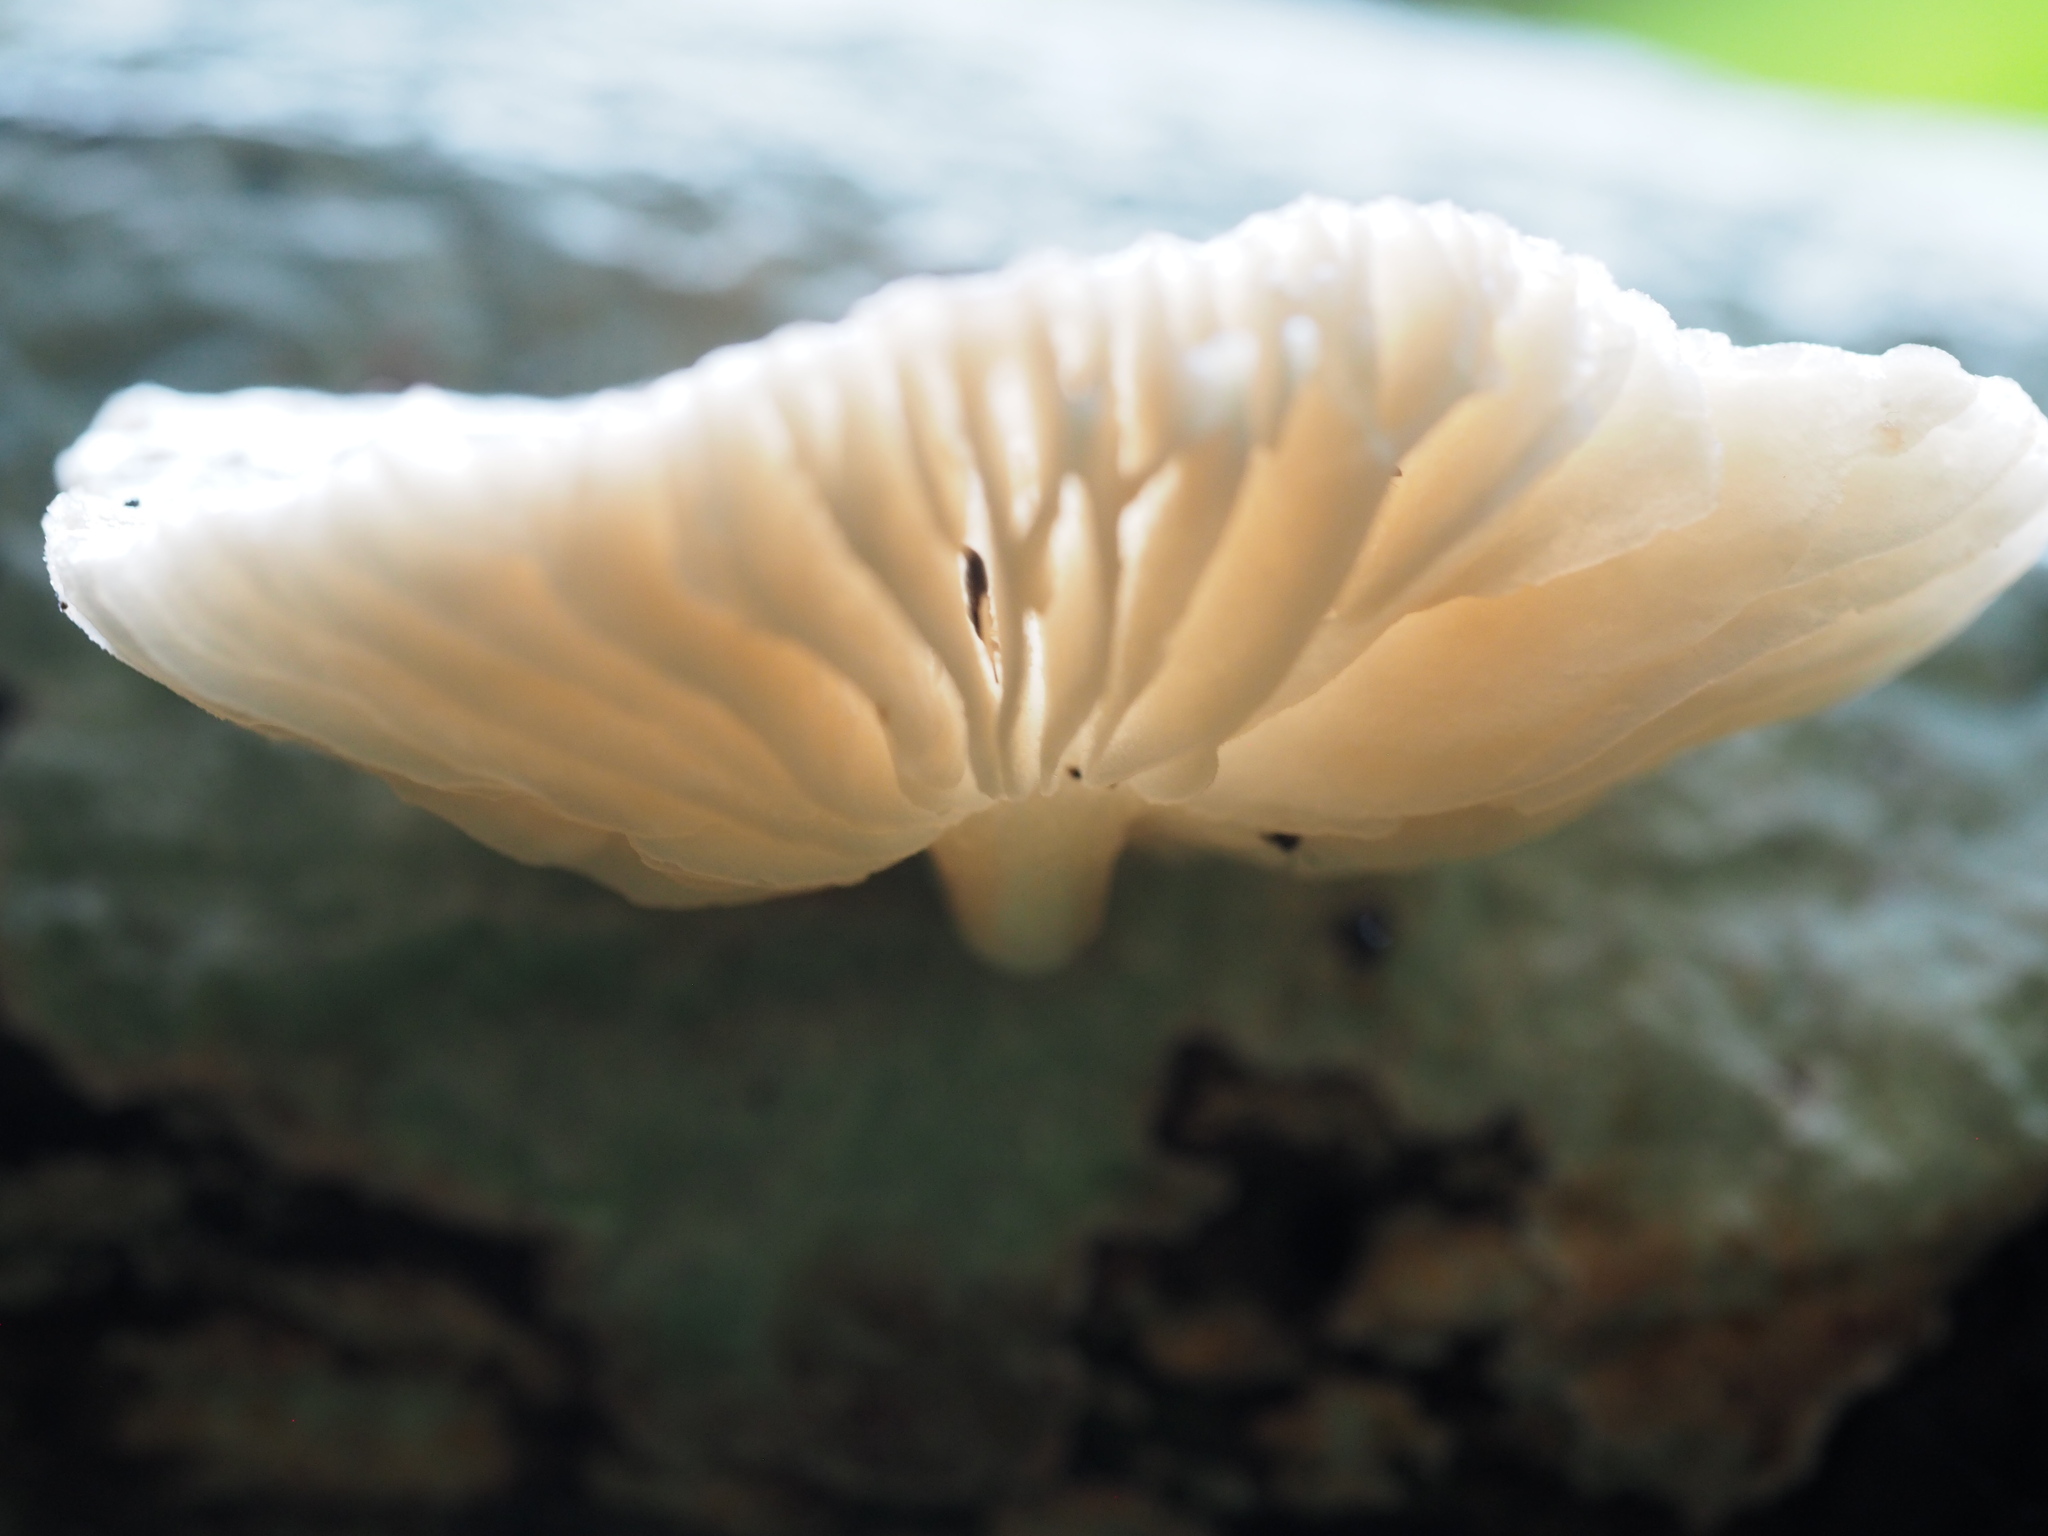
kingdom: Fungi
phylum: Basidiomycota
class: Agaricomycetes
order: Agaricales
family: Physalacriaceae
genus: Oudemansiella
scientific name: Oudemansiella canarii
